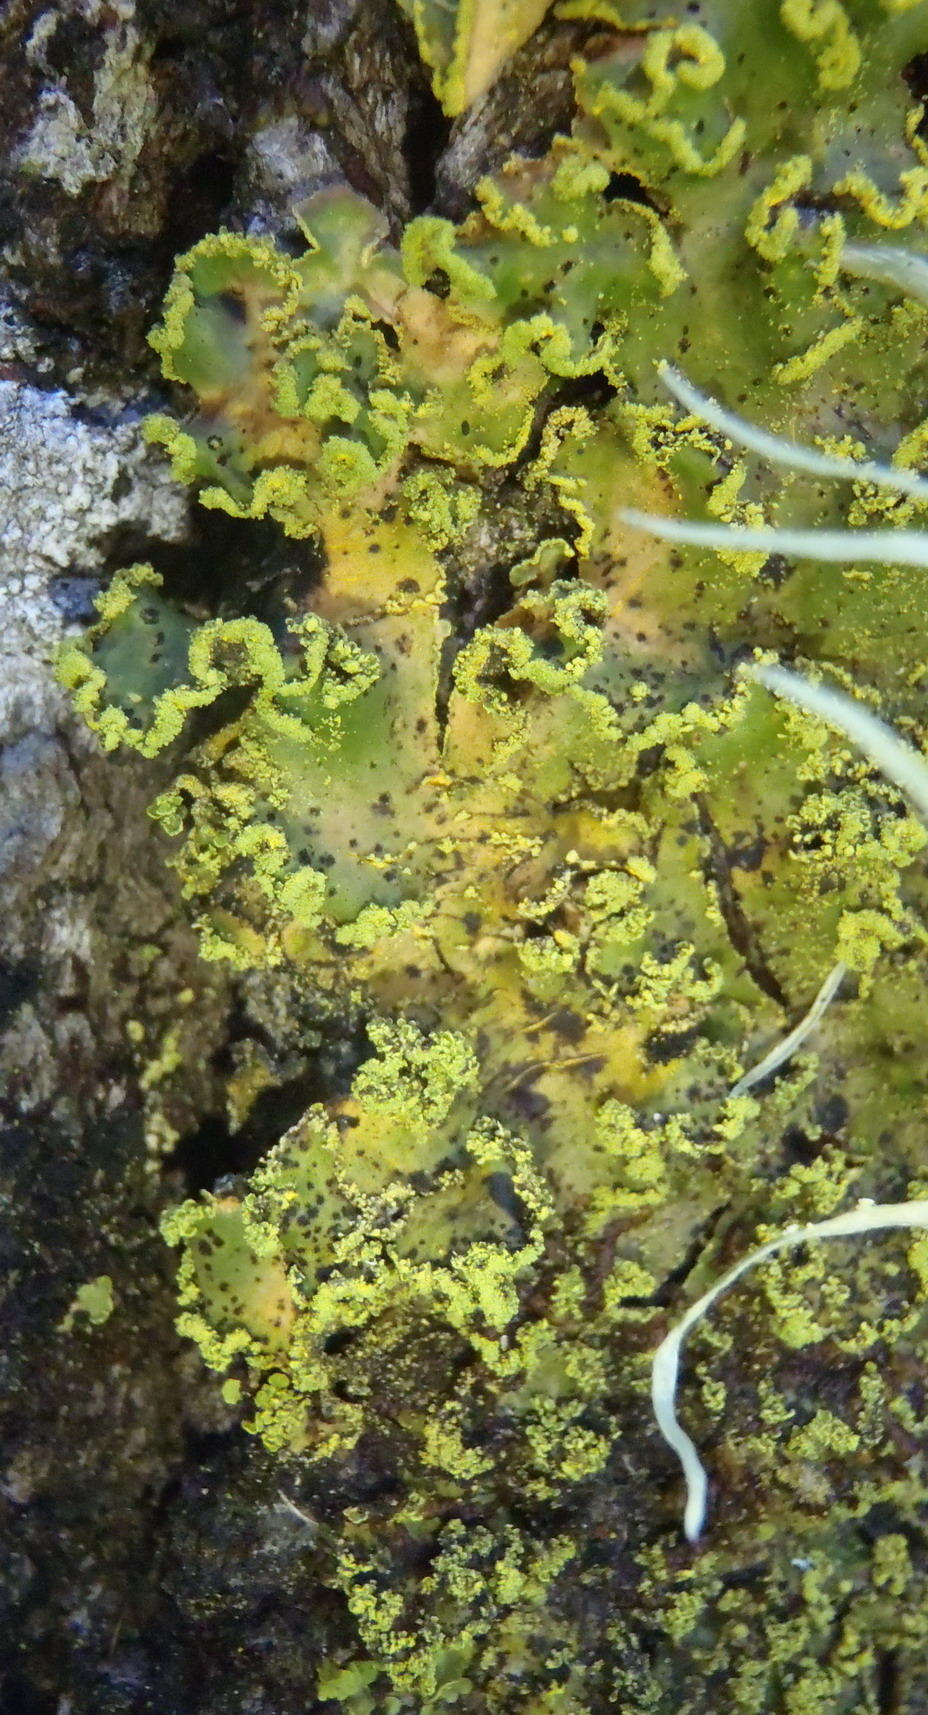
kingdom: Fungi
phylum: Ascomycota
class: Lecanoromycetes
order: Peltigerales
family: Lobariaceae
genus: Pseudocyphellaria
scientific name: Pseudocyphellaria aurata
